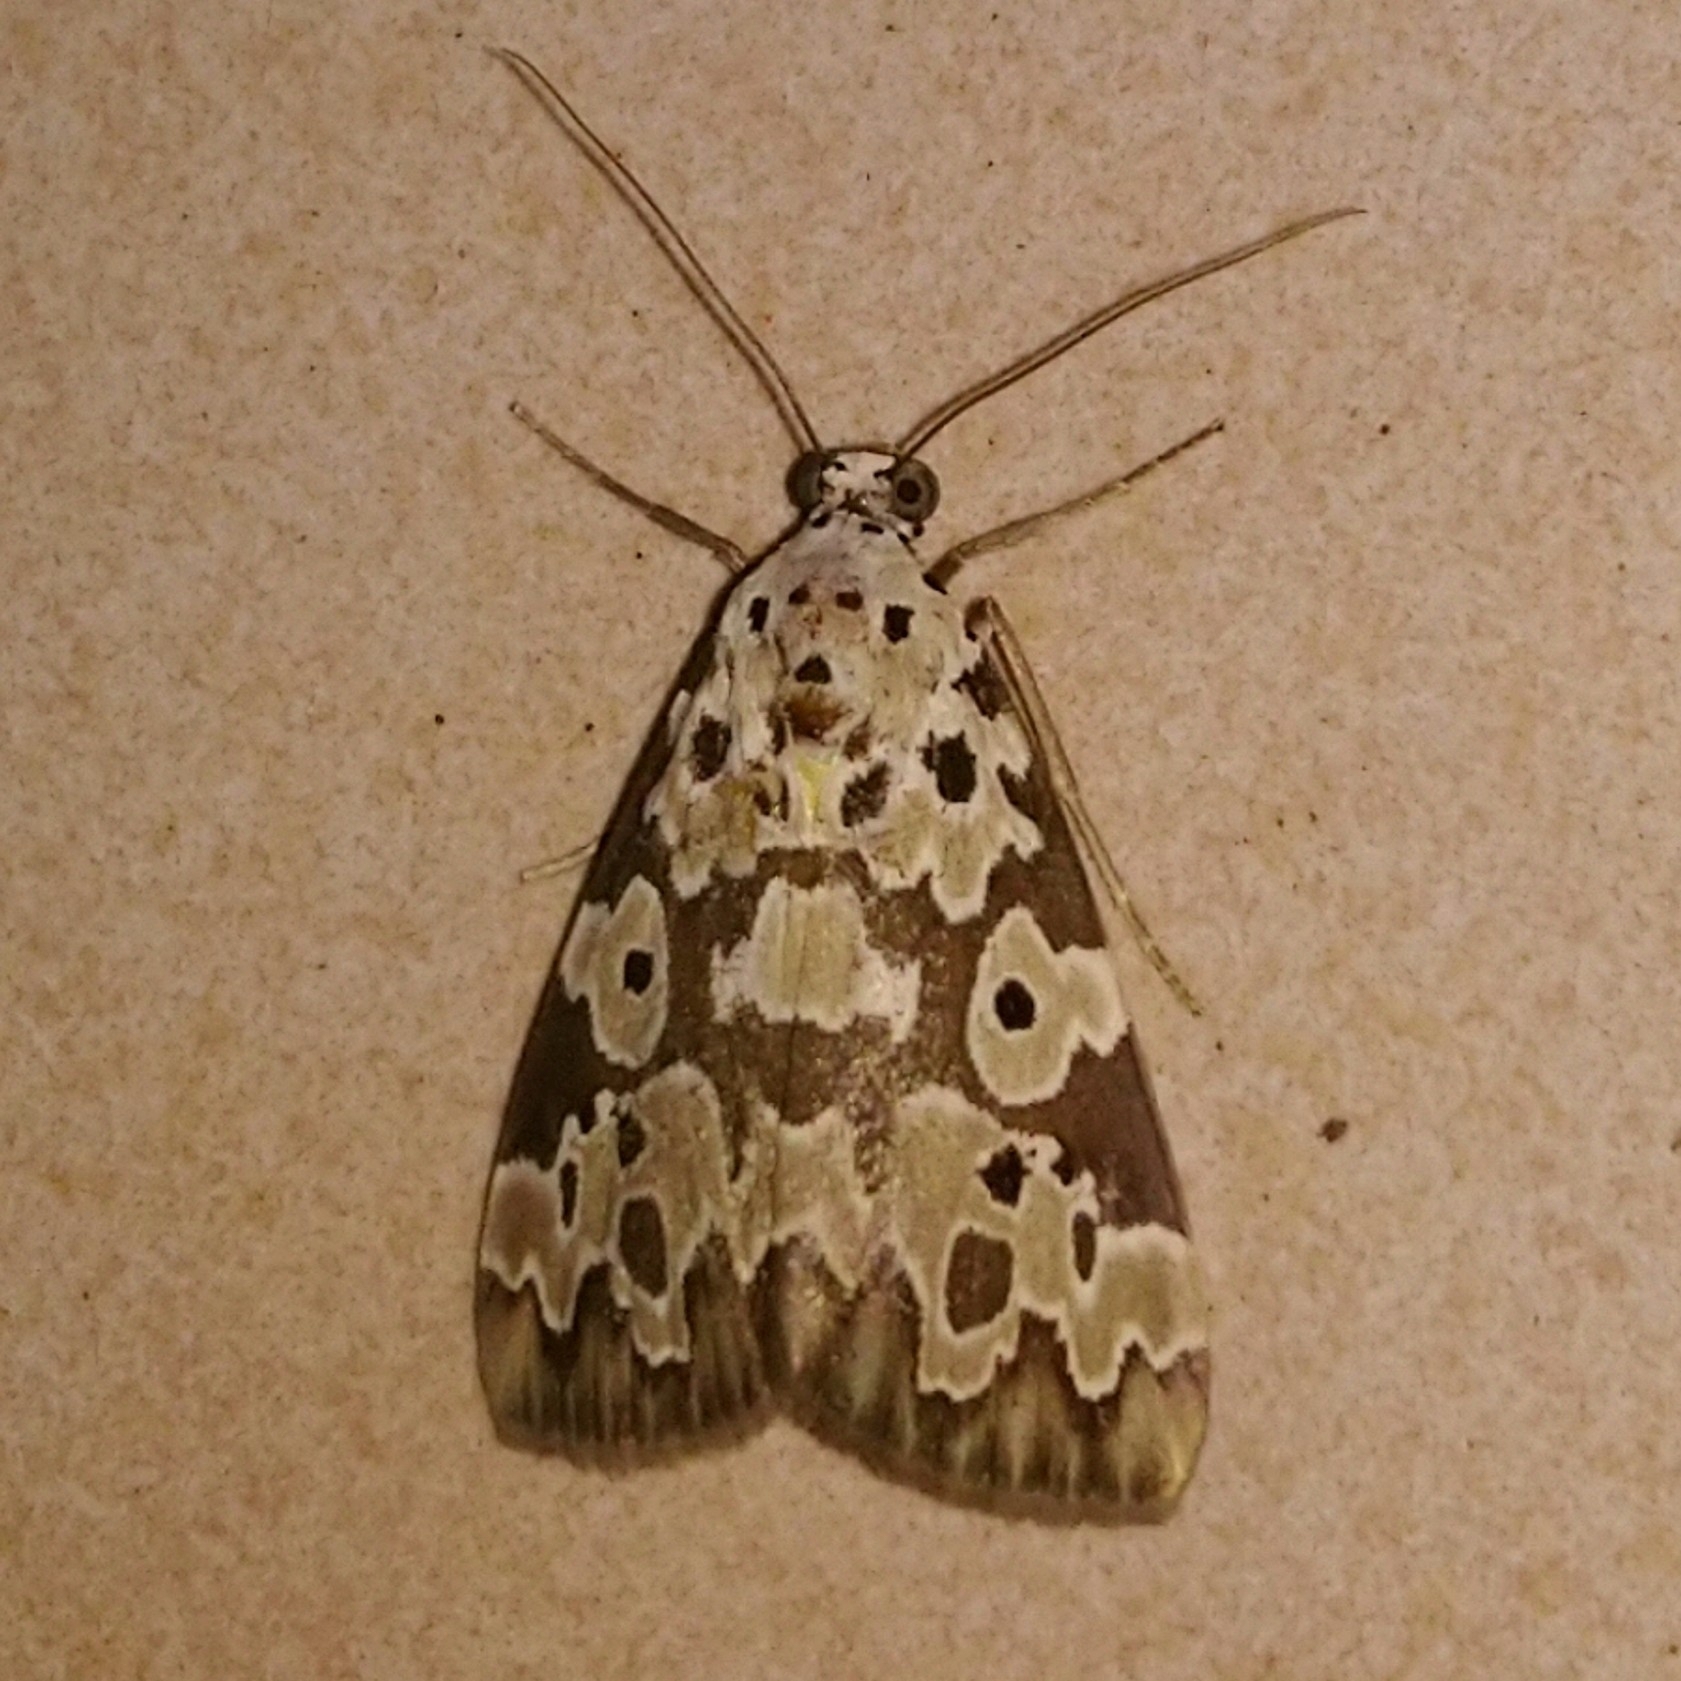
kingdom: Animalia
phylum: Arthropoda
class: Insecta
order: Lepidoptera
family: Erebidae
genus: Digama
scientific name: Digama Sommeria culta
